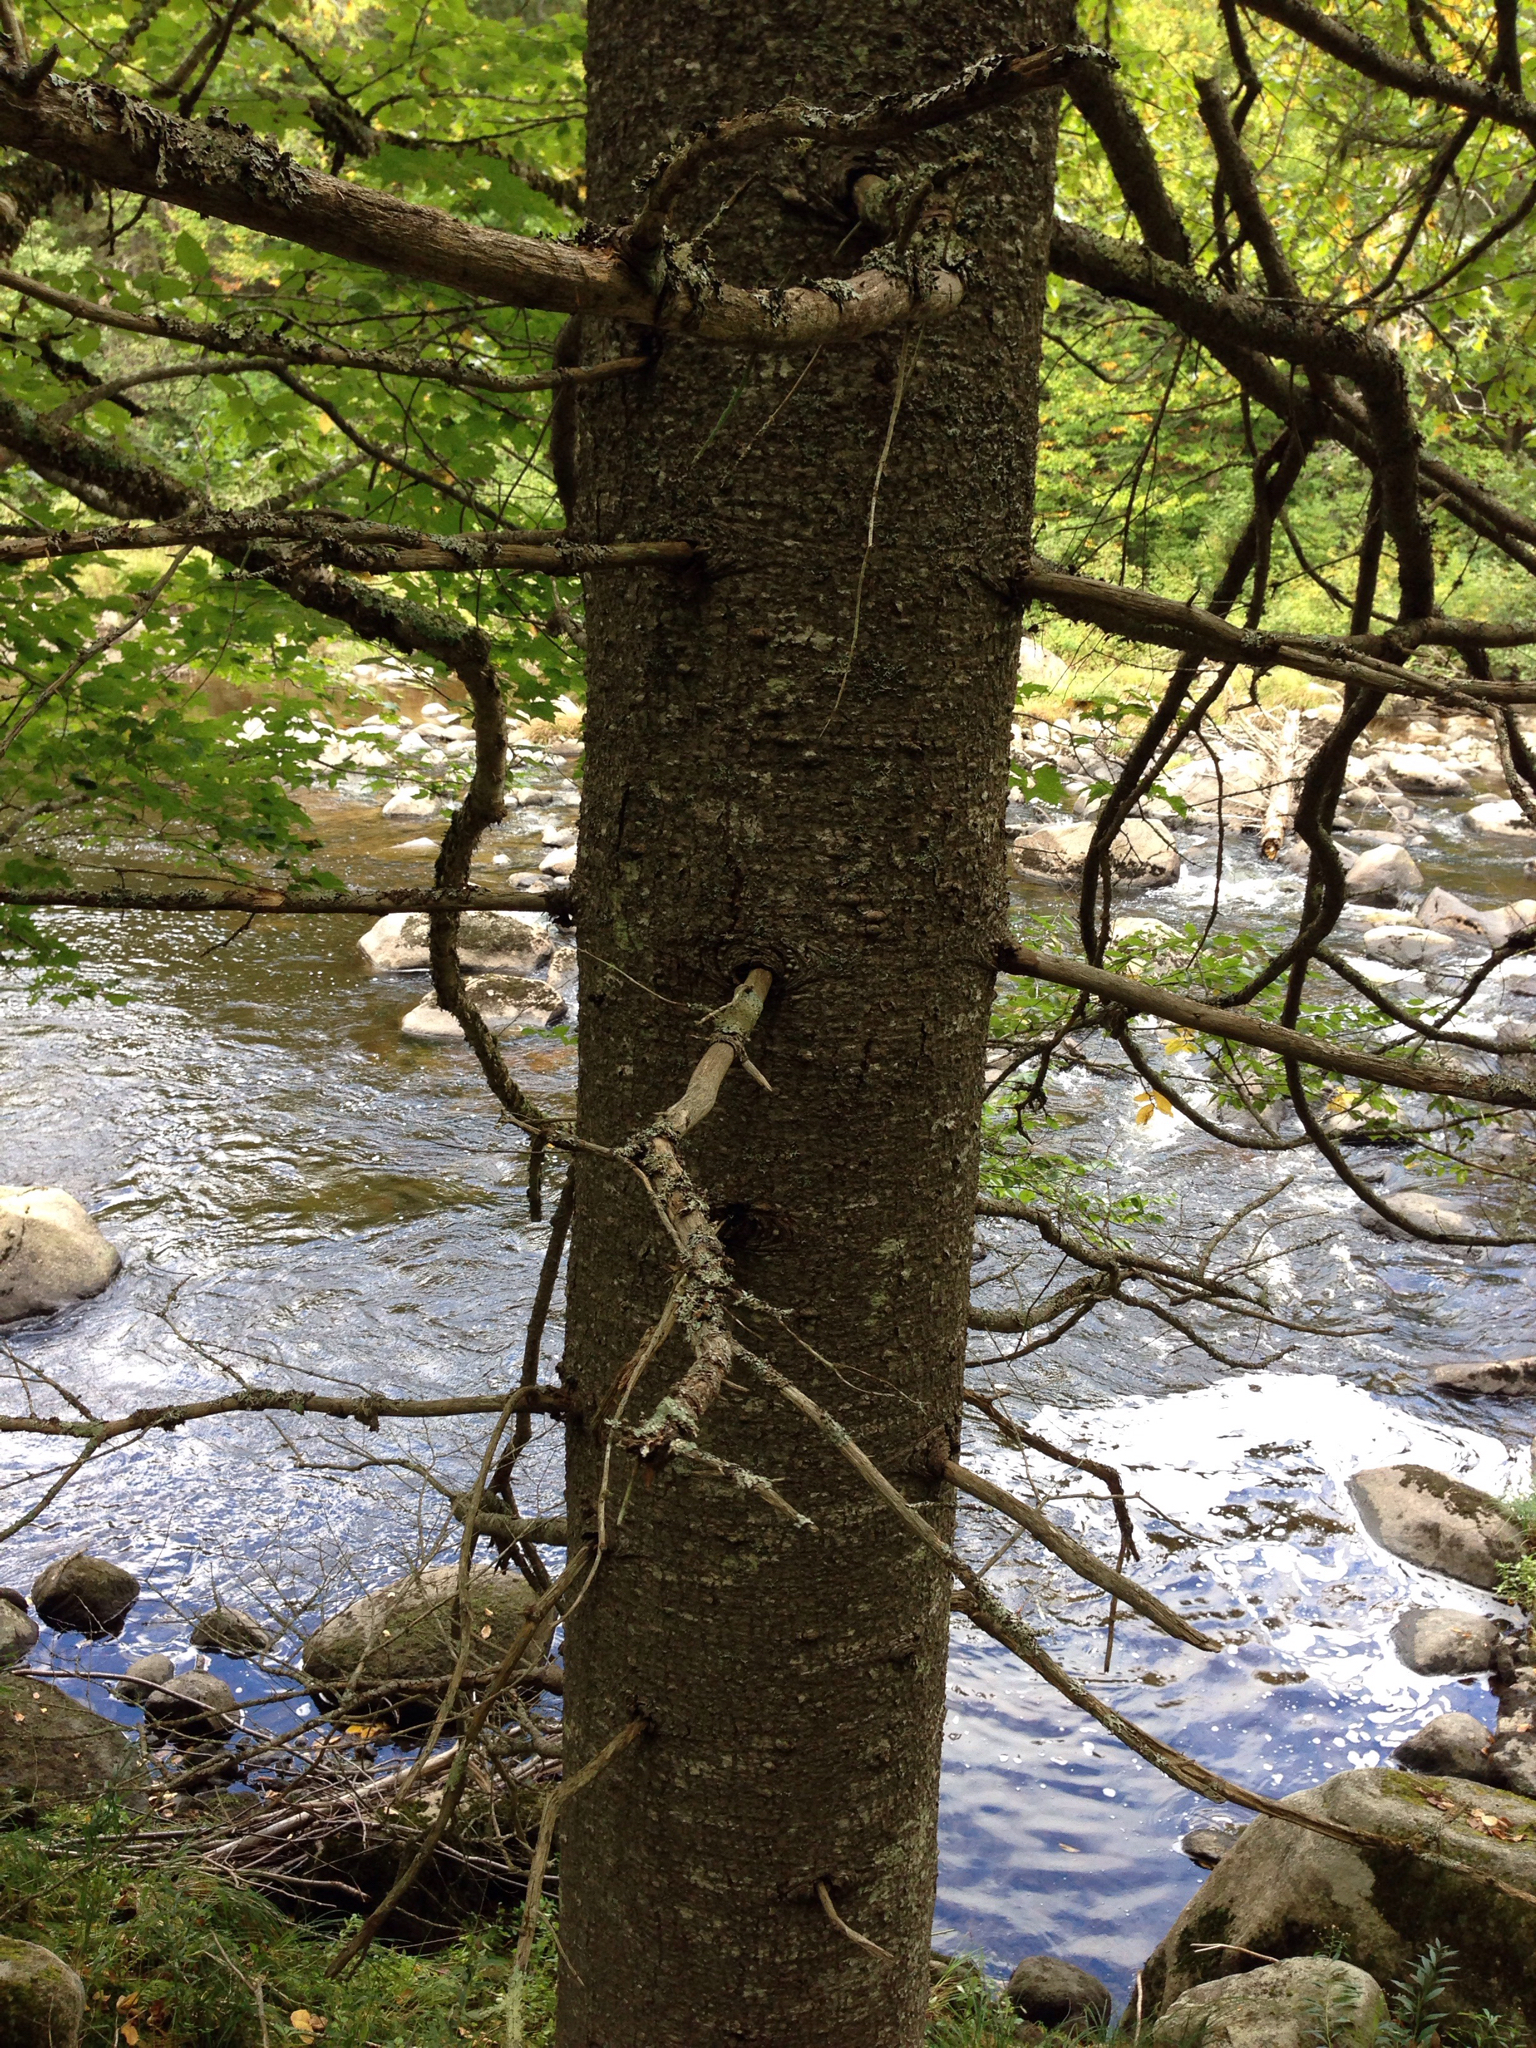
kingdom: Plantae
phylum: Tracheophyta
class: Pinopsida
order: Pinales
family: Pinaceae
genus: Abies
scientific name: Abies balsamea
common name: Balsam fir
